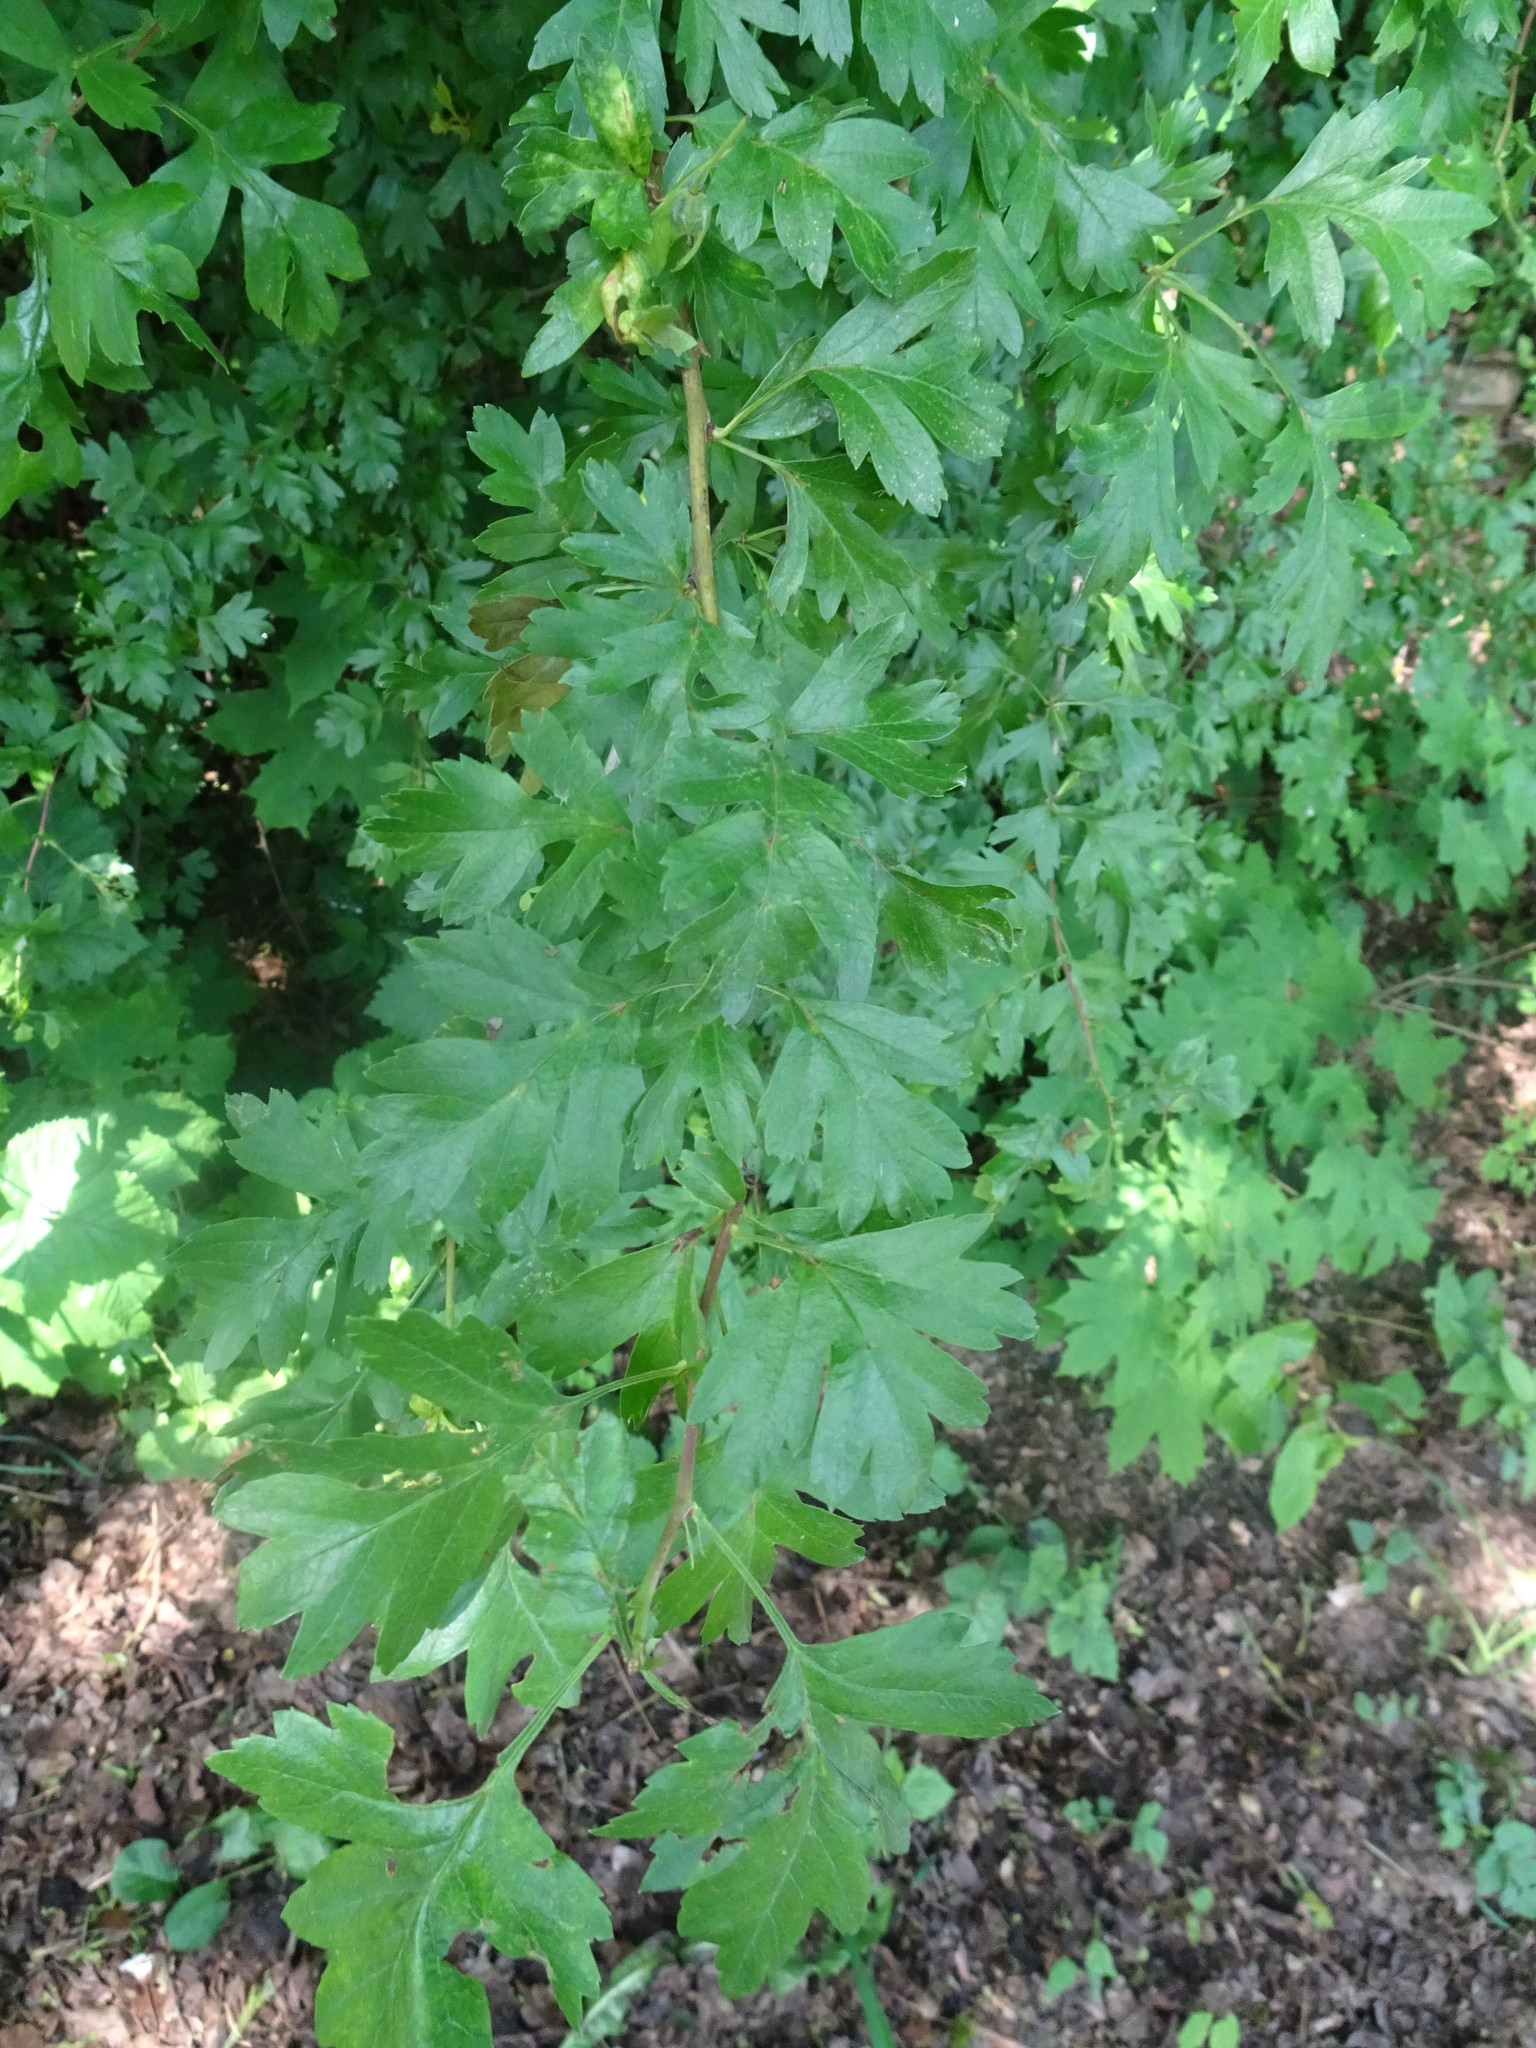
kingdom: Plantae
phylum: Tracheophyta
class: Magnoliopsida
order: Rosales
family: Rosaceae
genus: Crataegus
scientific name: Crataegus monogyna
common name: Hawthorn
